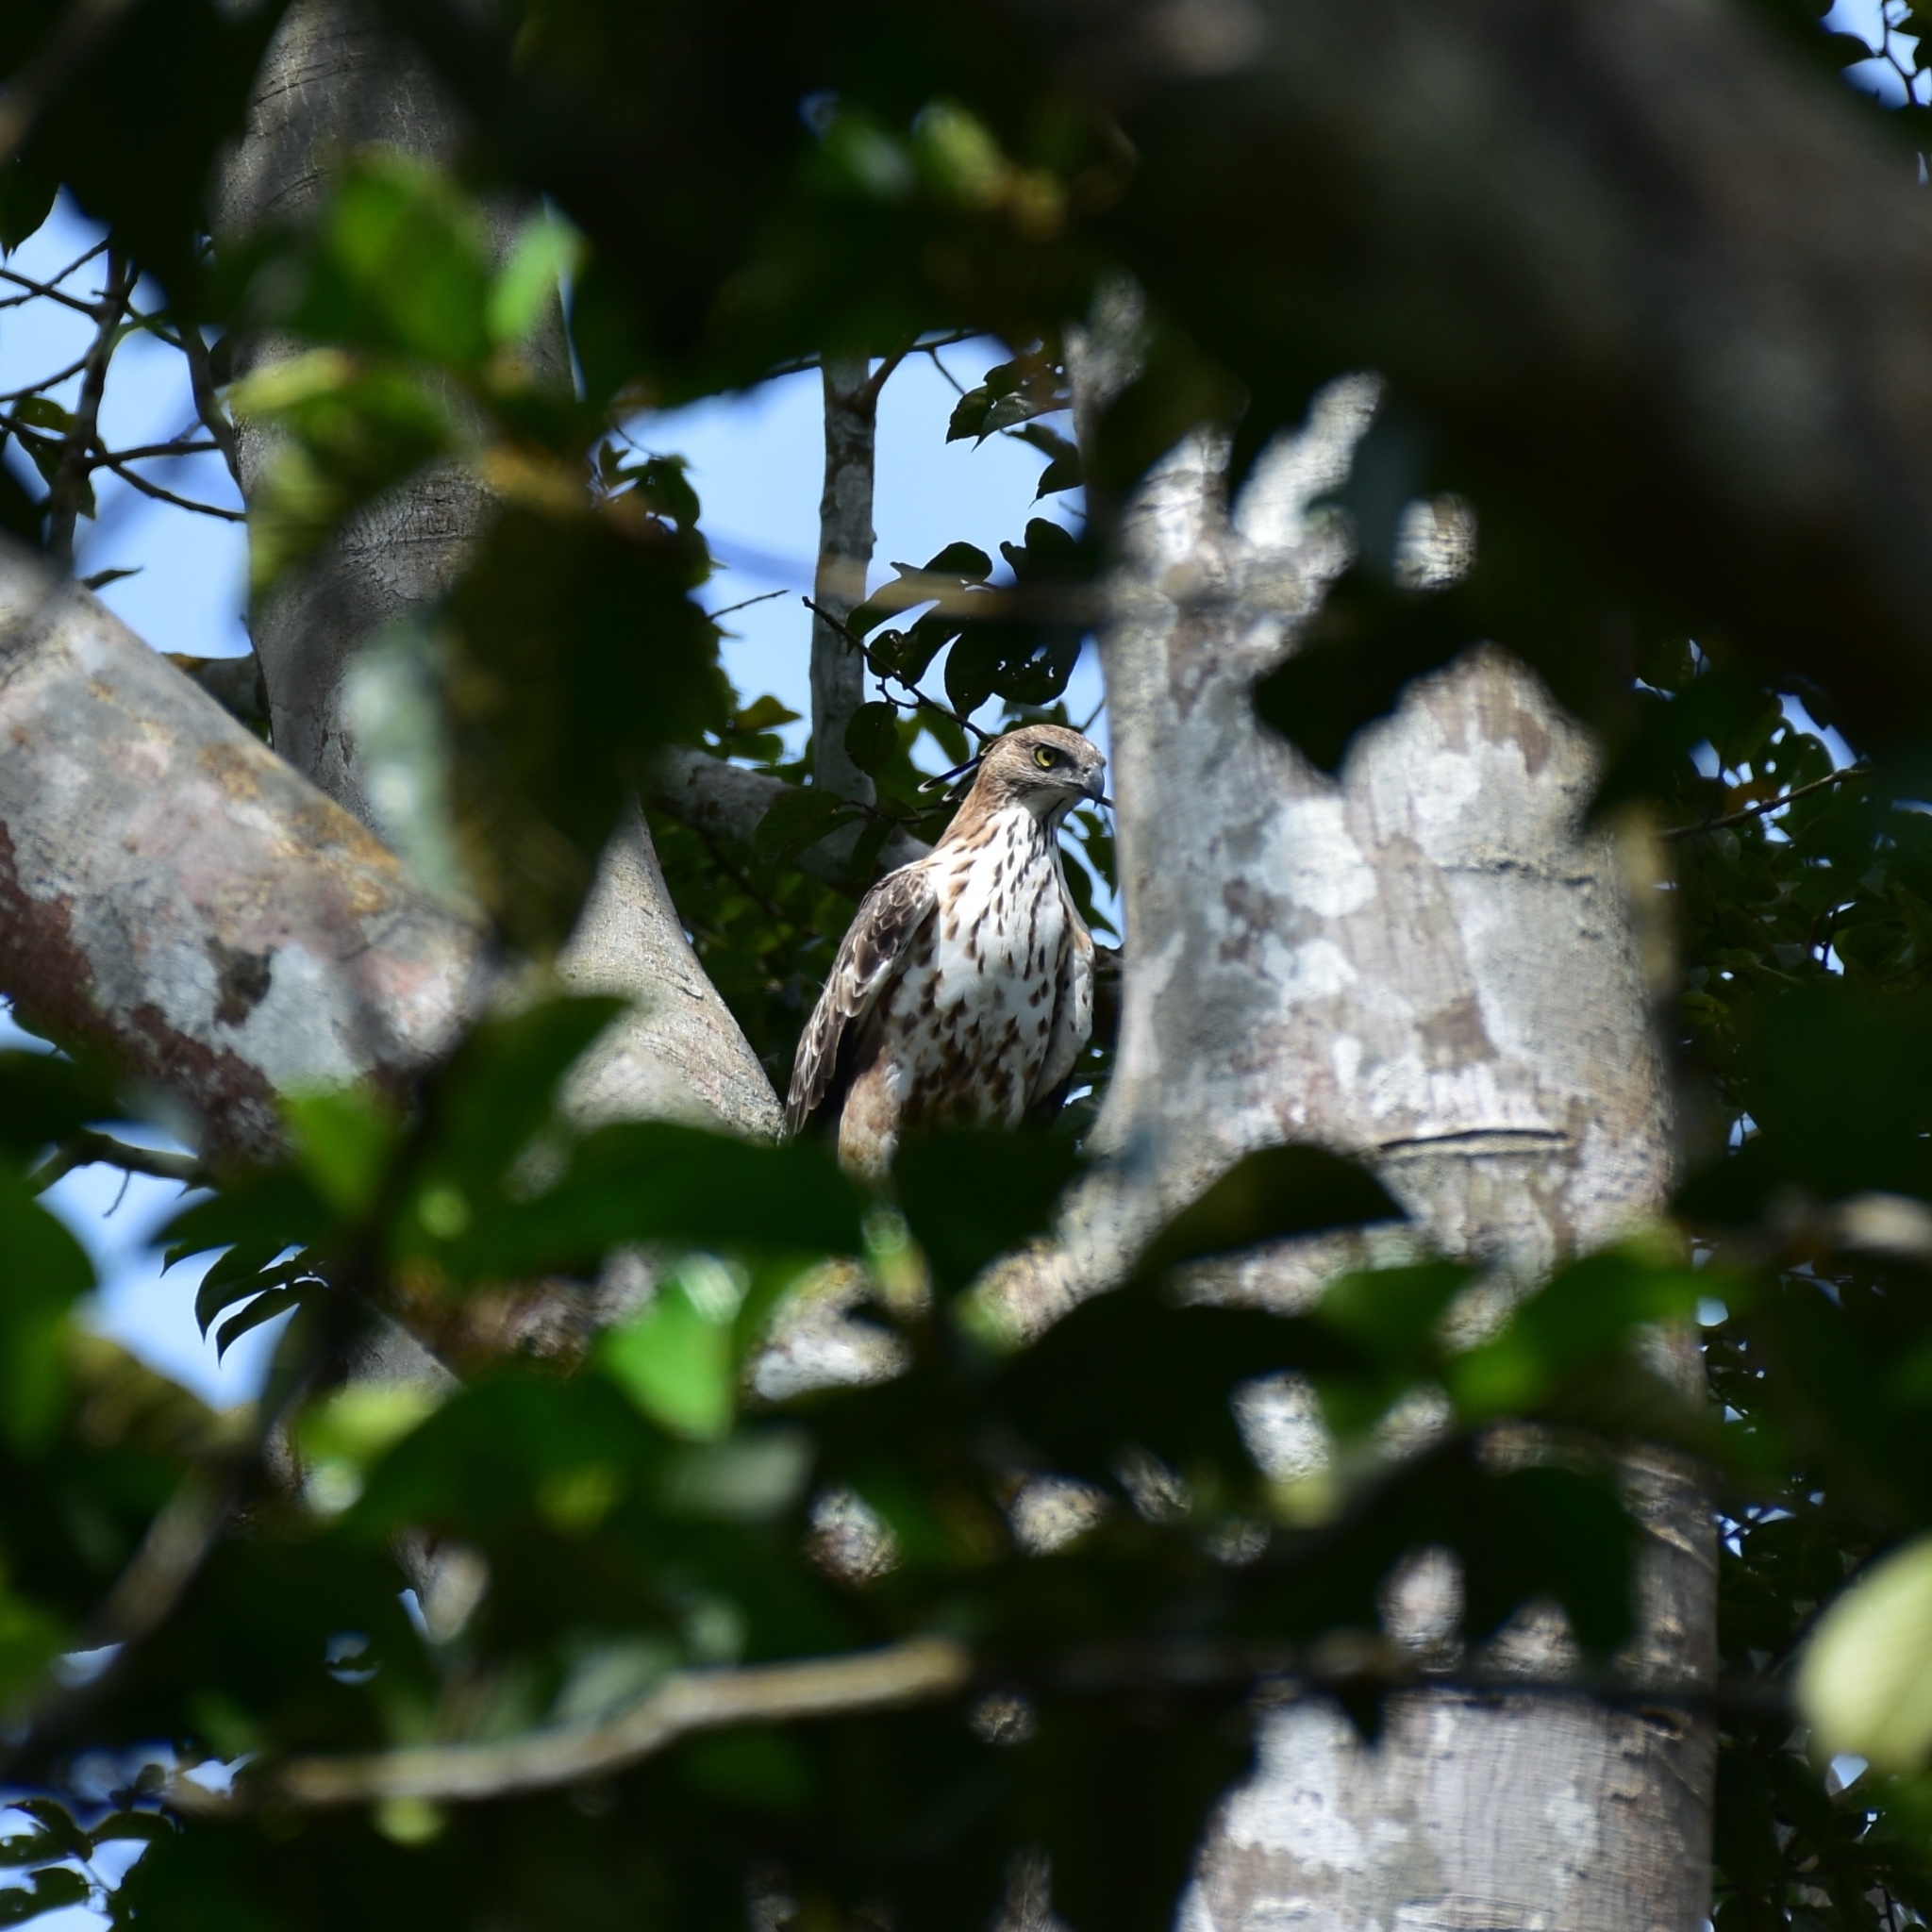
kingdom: Animalia
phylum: Chordata
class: Aves
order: Accipitriformes
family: Accipitridae
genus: Nisaetus
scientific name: Nisaetus cirrhatus
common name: Changeable hawk-eagle
